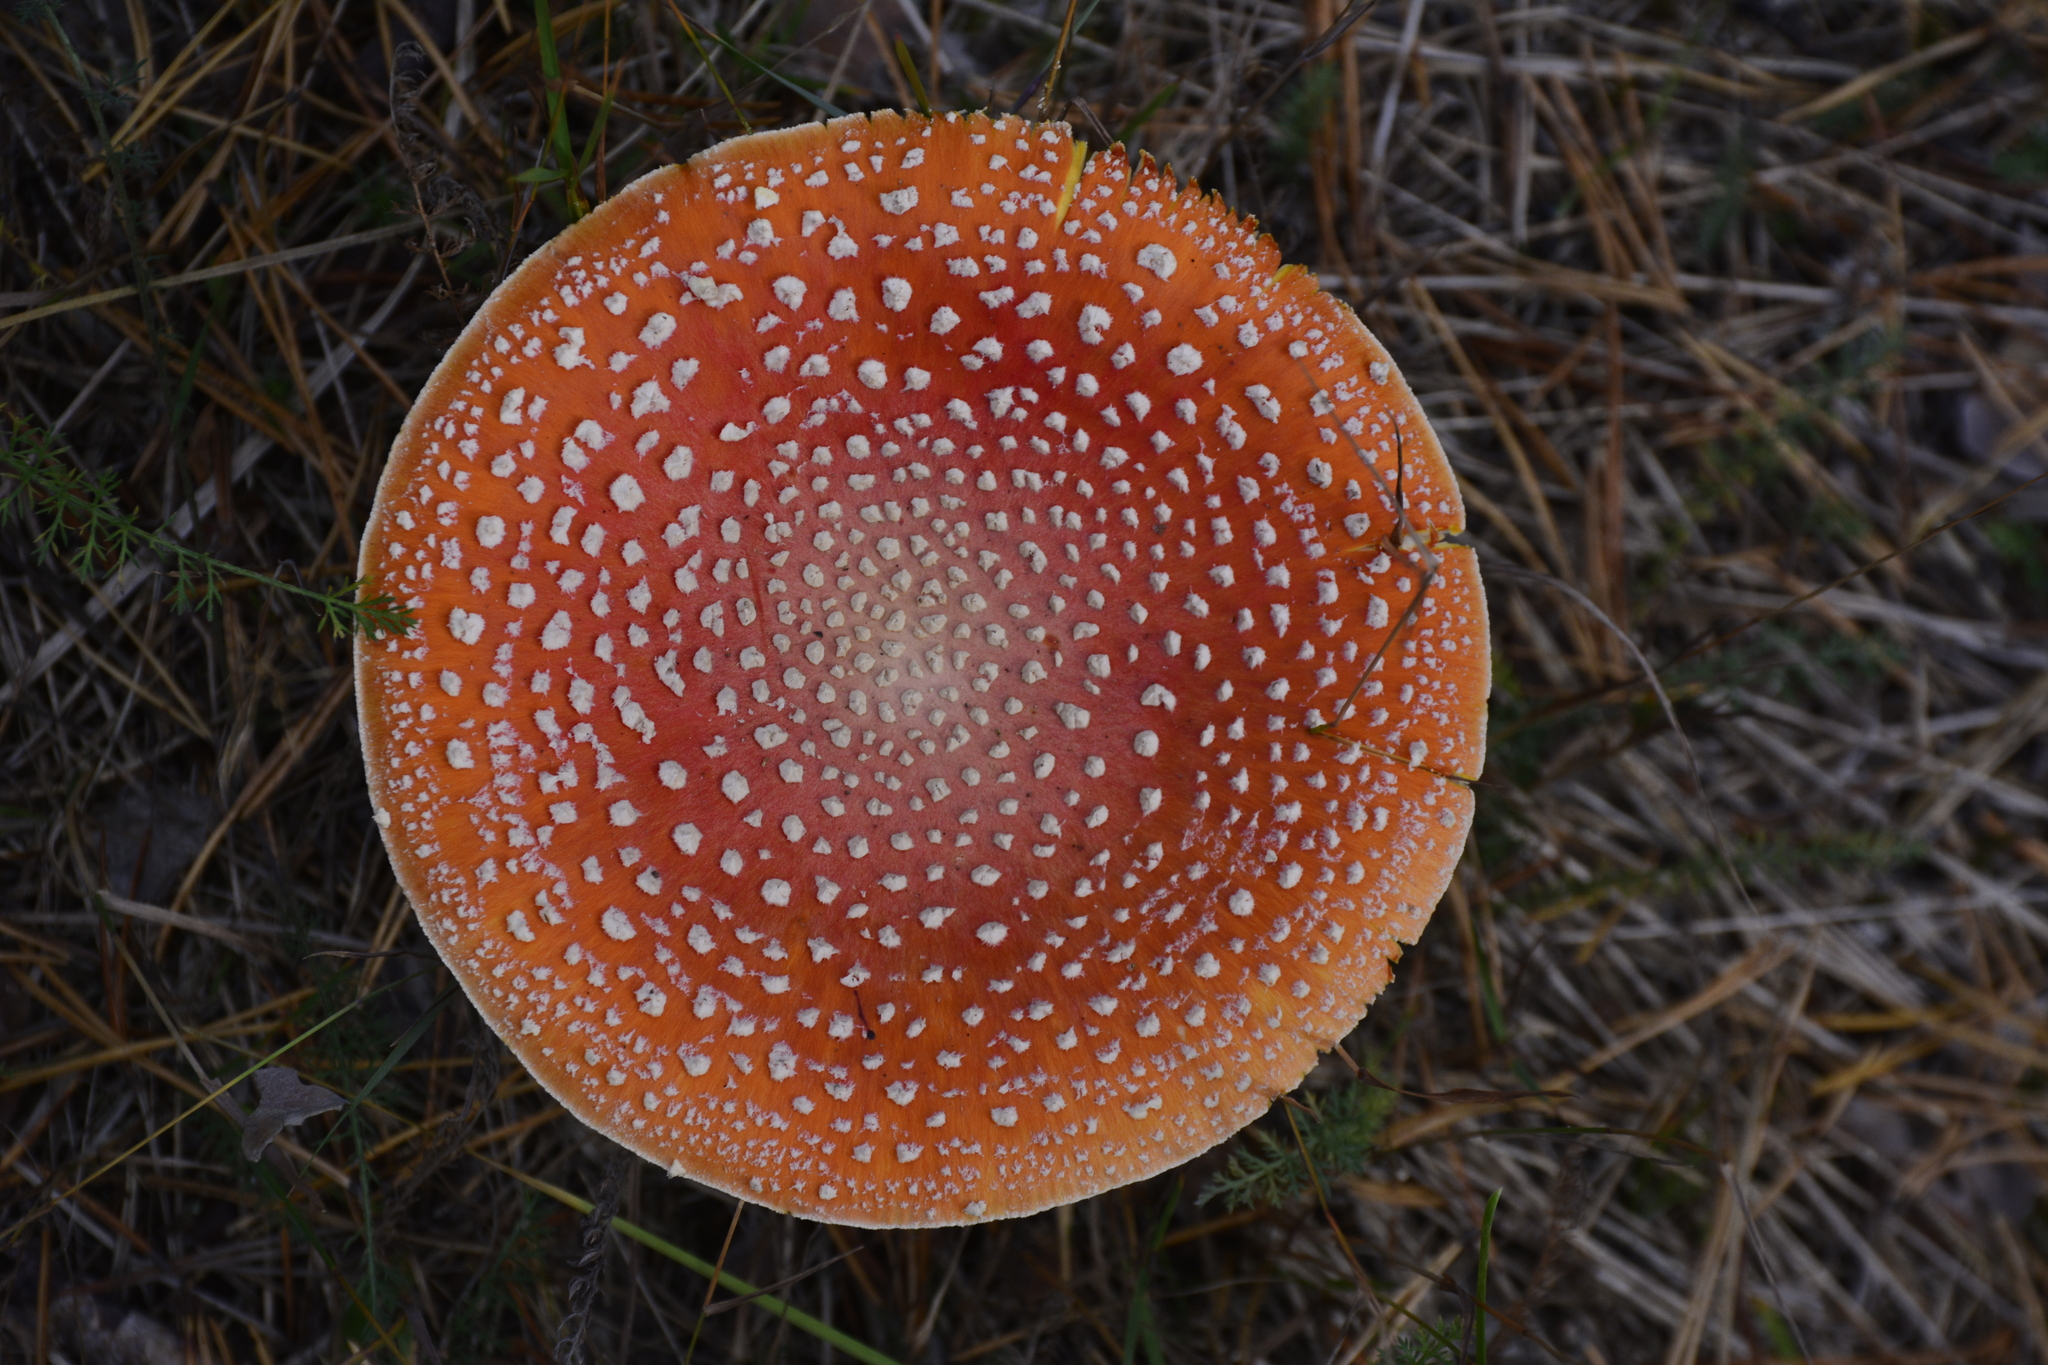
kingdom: Fungi
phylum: Basidiomycota
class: Agaricomycetes
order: Agaricales
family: Amanitaceae
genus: Amanita
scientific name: Amanita muscaria
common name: Fly agaric
